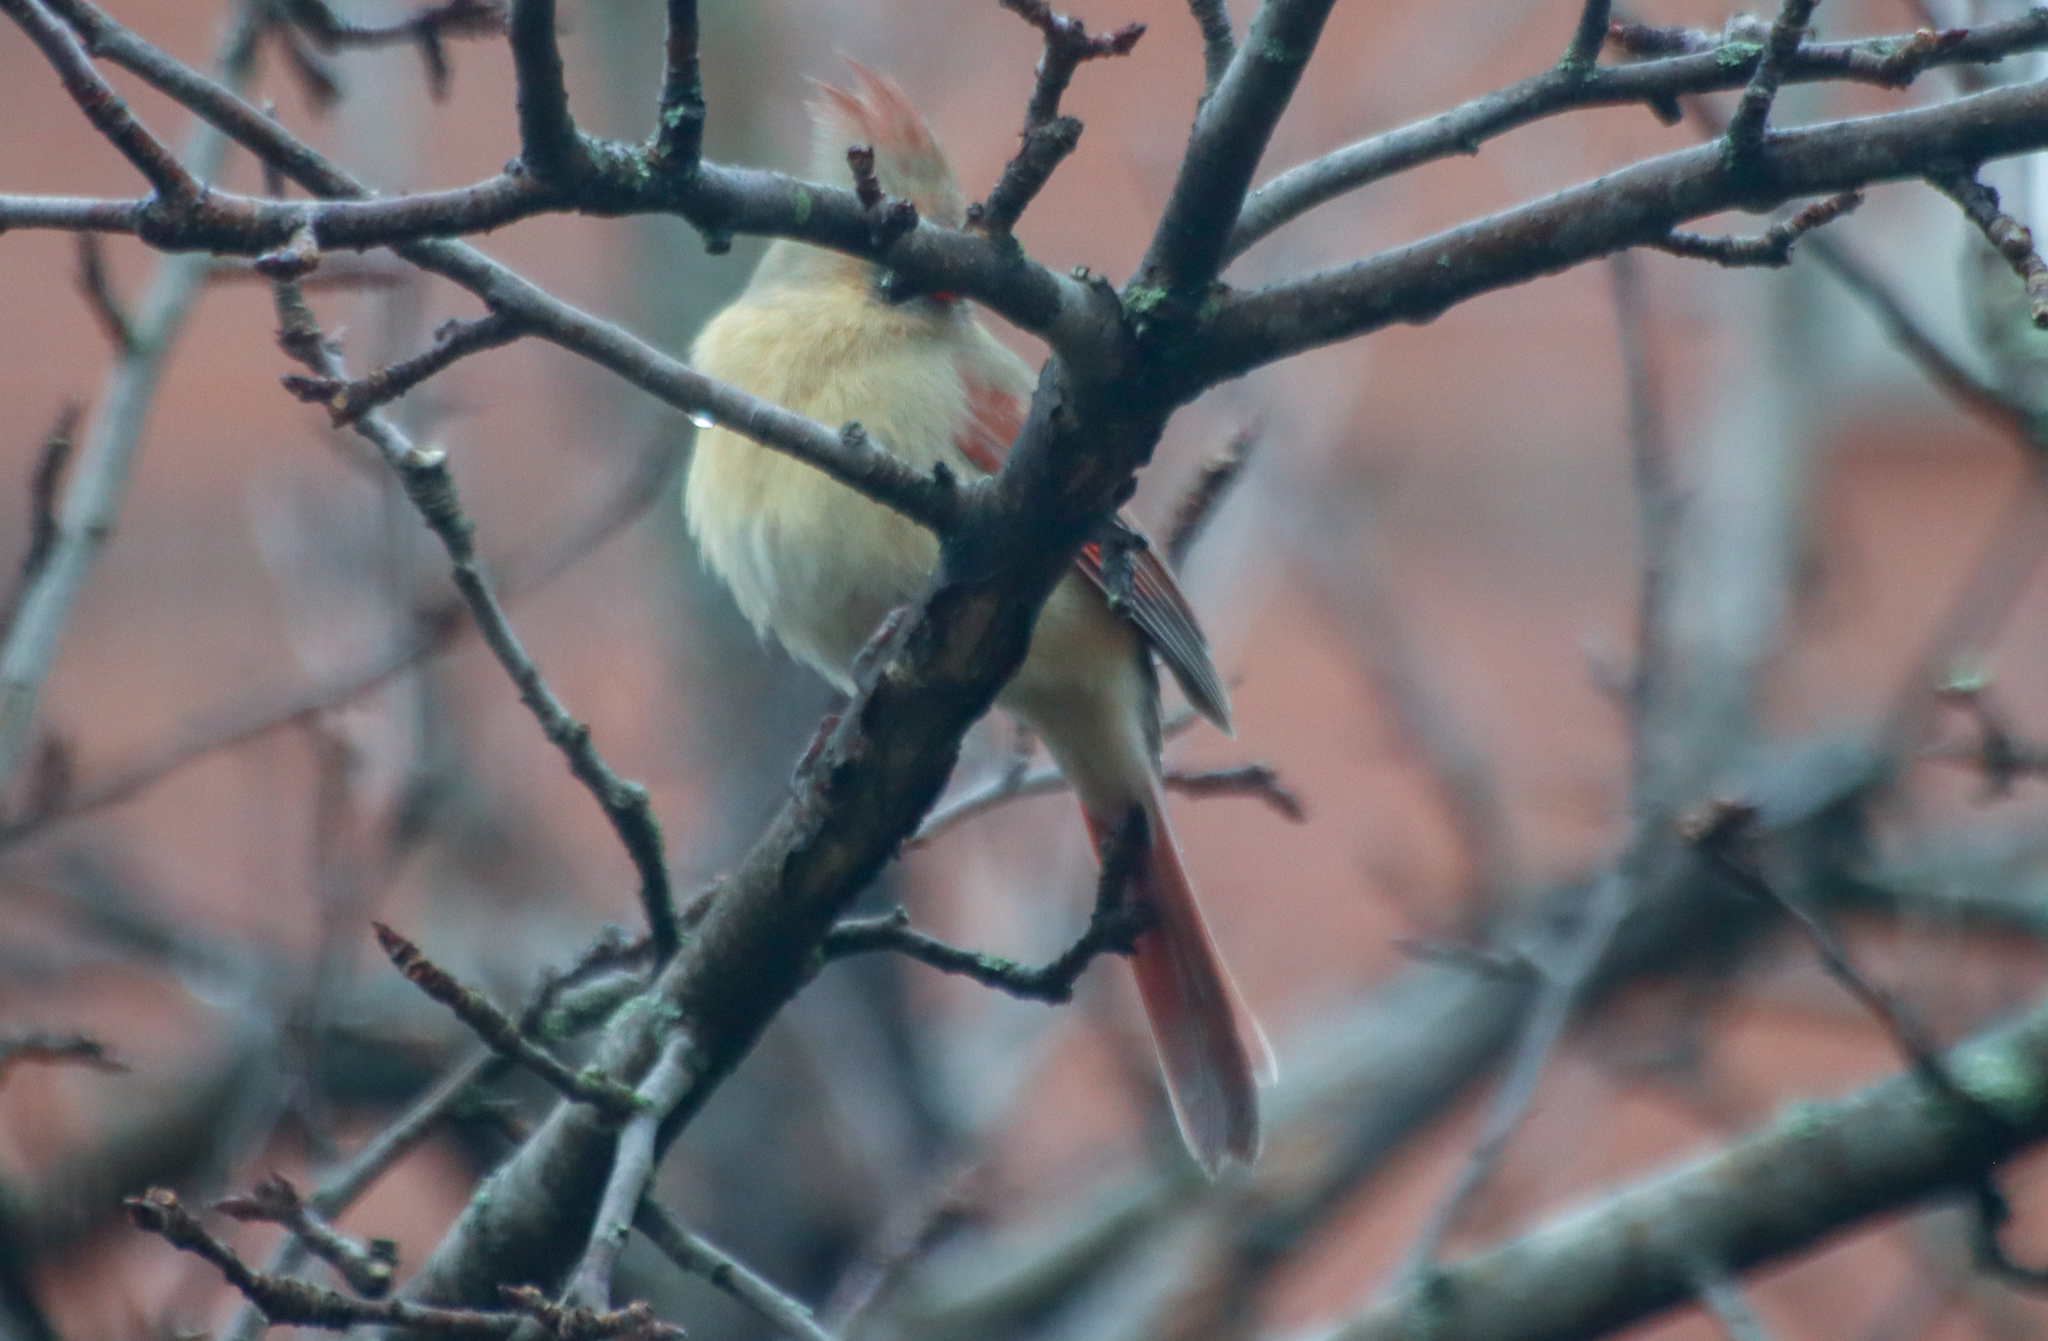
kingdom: Animalia
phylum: Chordata
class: Aves
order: Passeriformes
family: Cardinalidae
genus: Cardinalis
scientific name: Cardinalis cardinalis
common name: Northern cardinal
